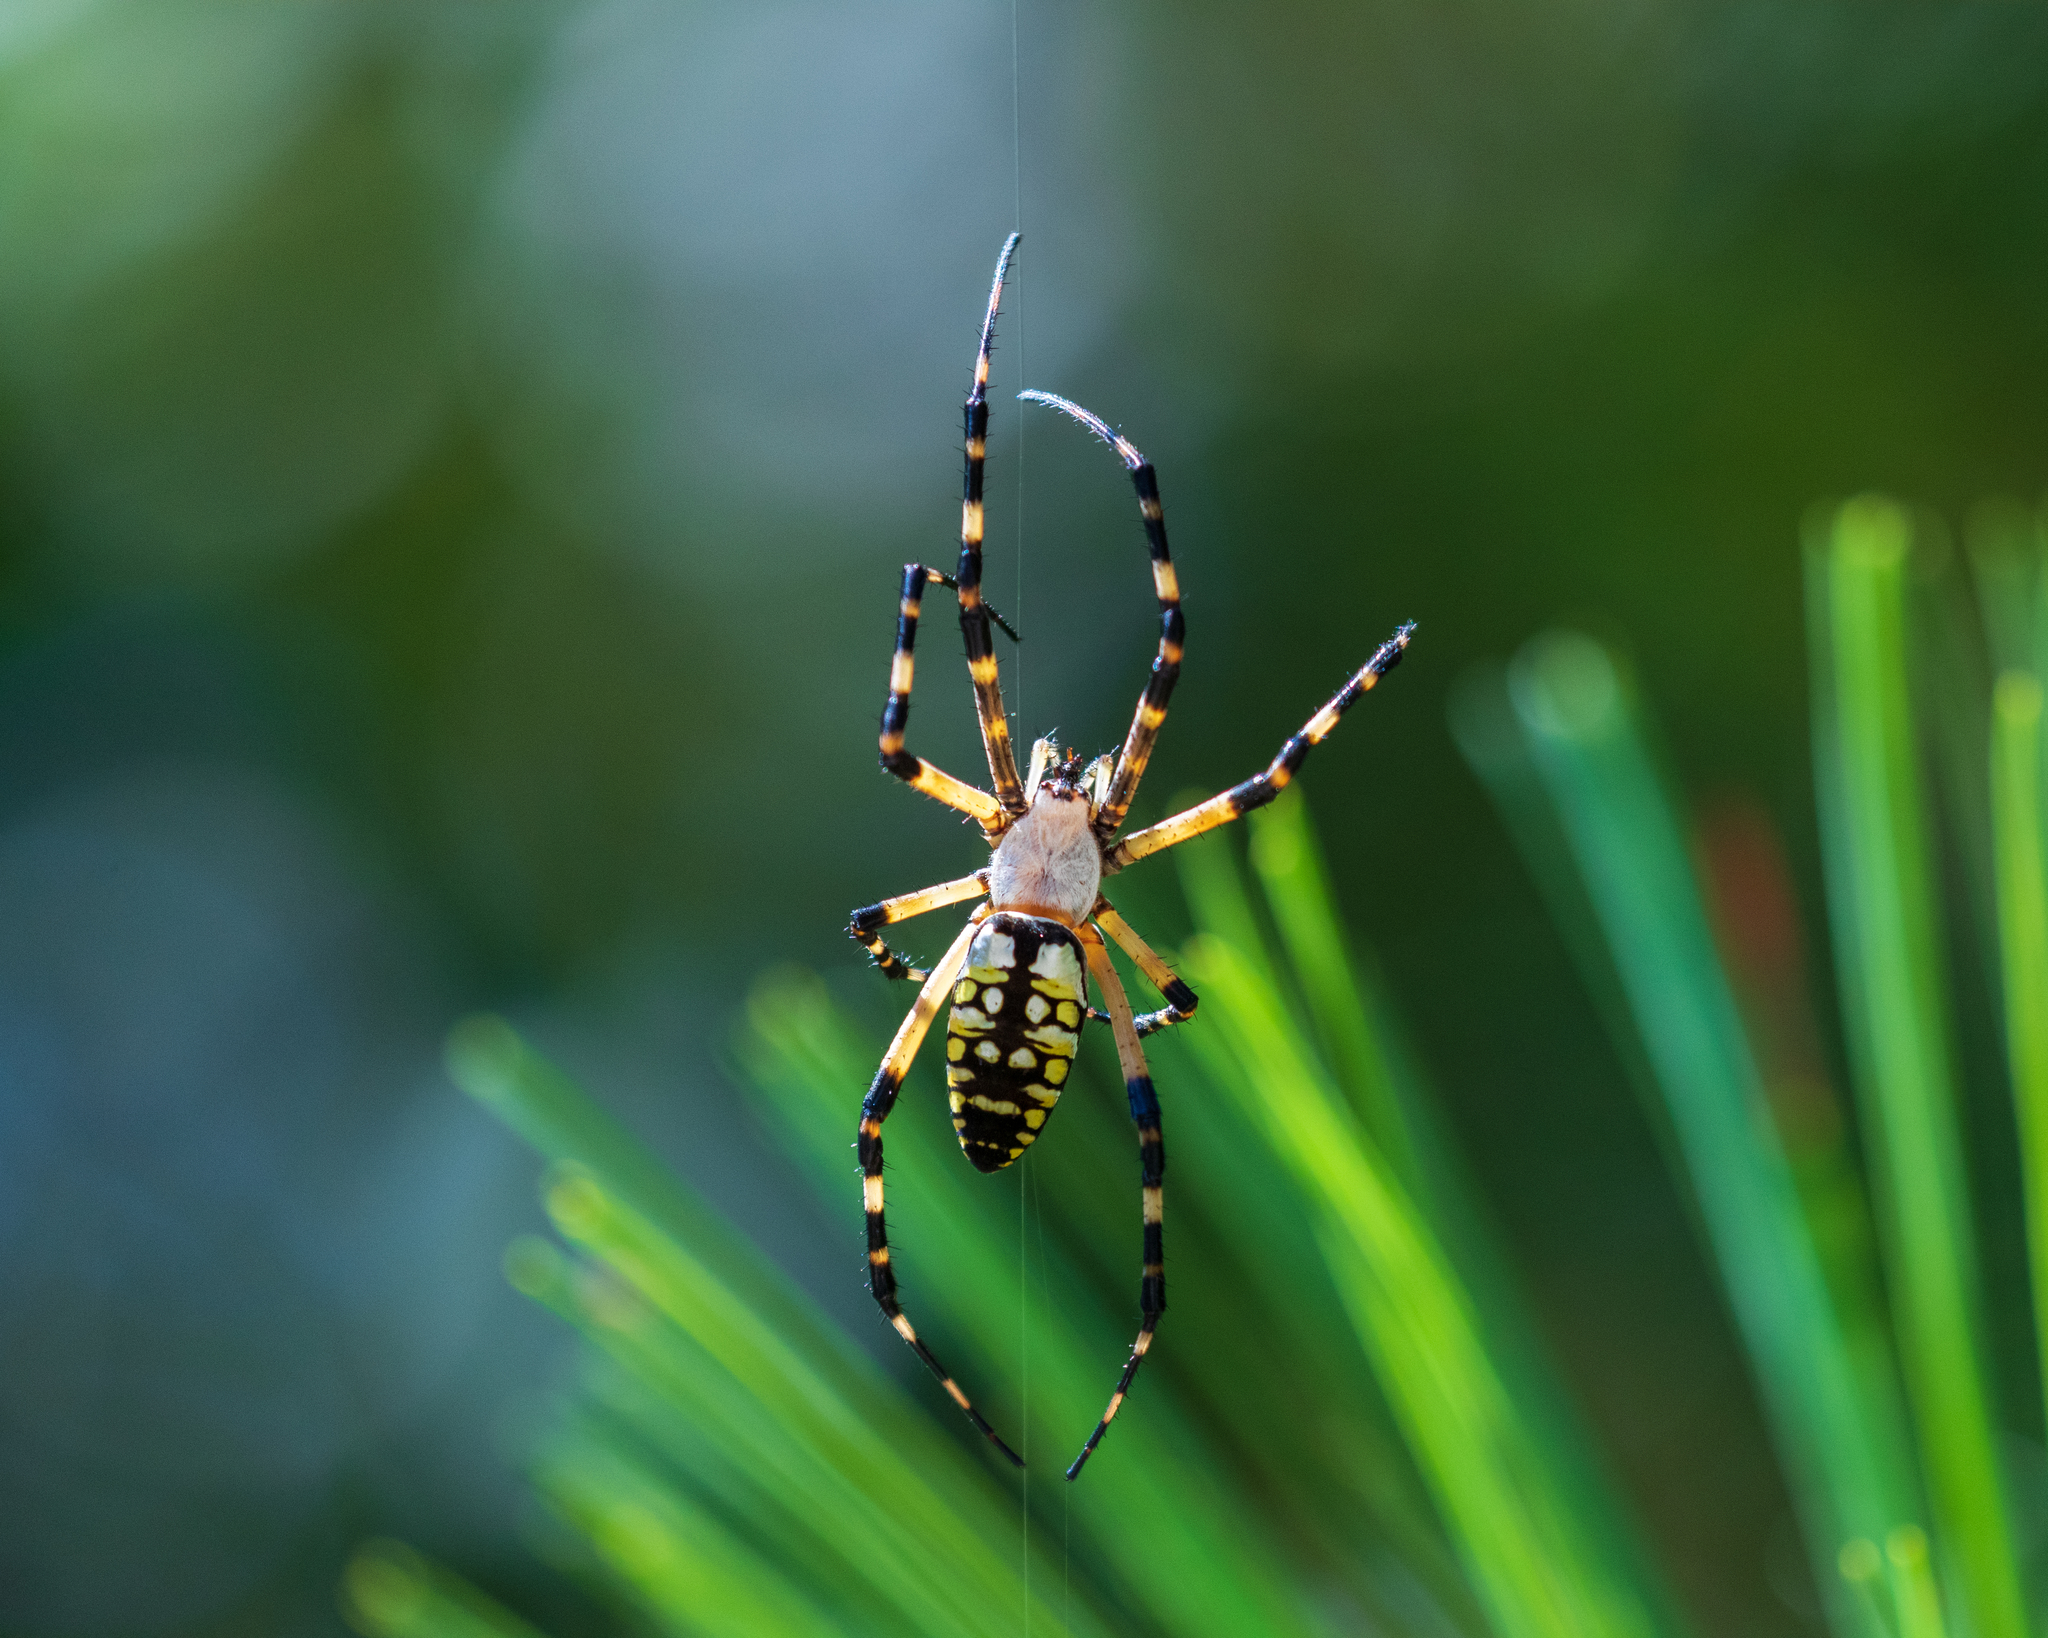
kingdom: Animalia
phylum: Arthropoda
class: Arachnida
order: Araneae
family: Araneidae
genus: Argiope
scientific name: Argiope aurantia
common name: Orb weavers
